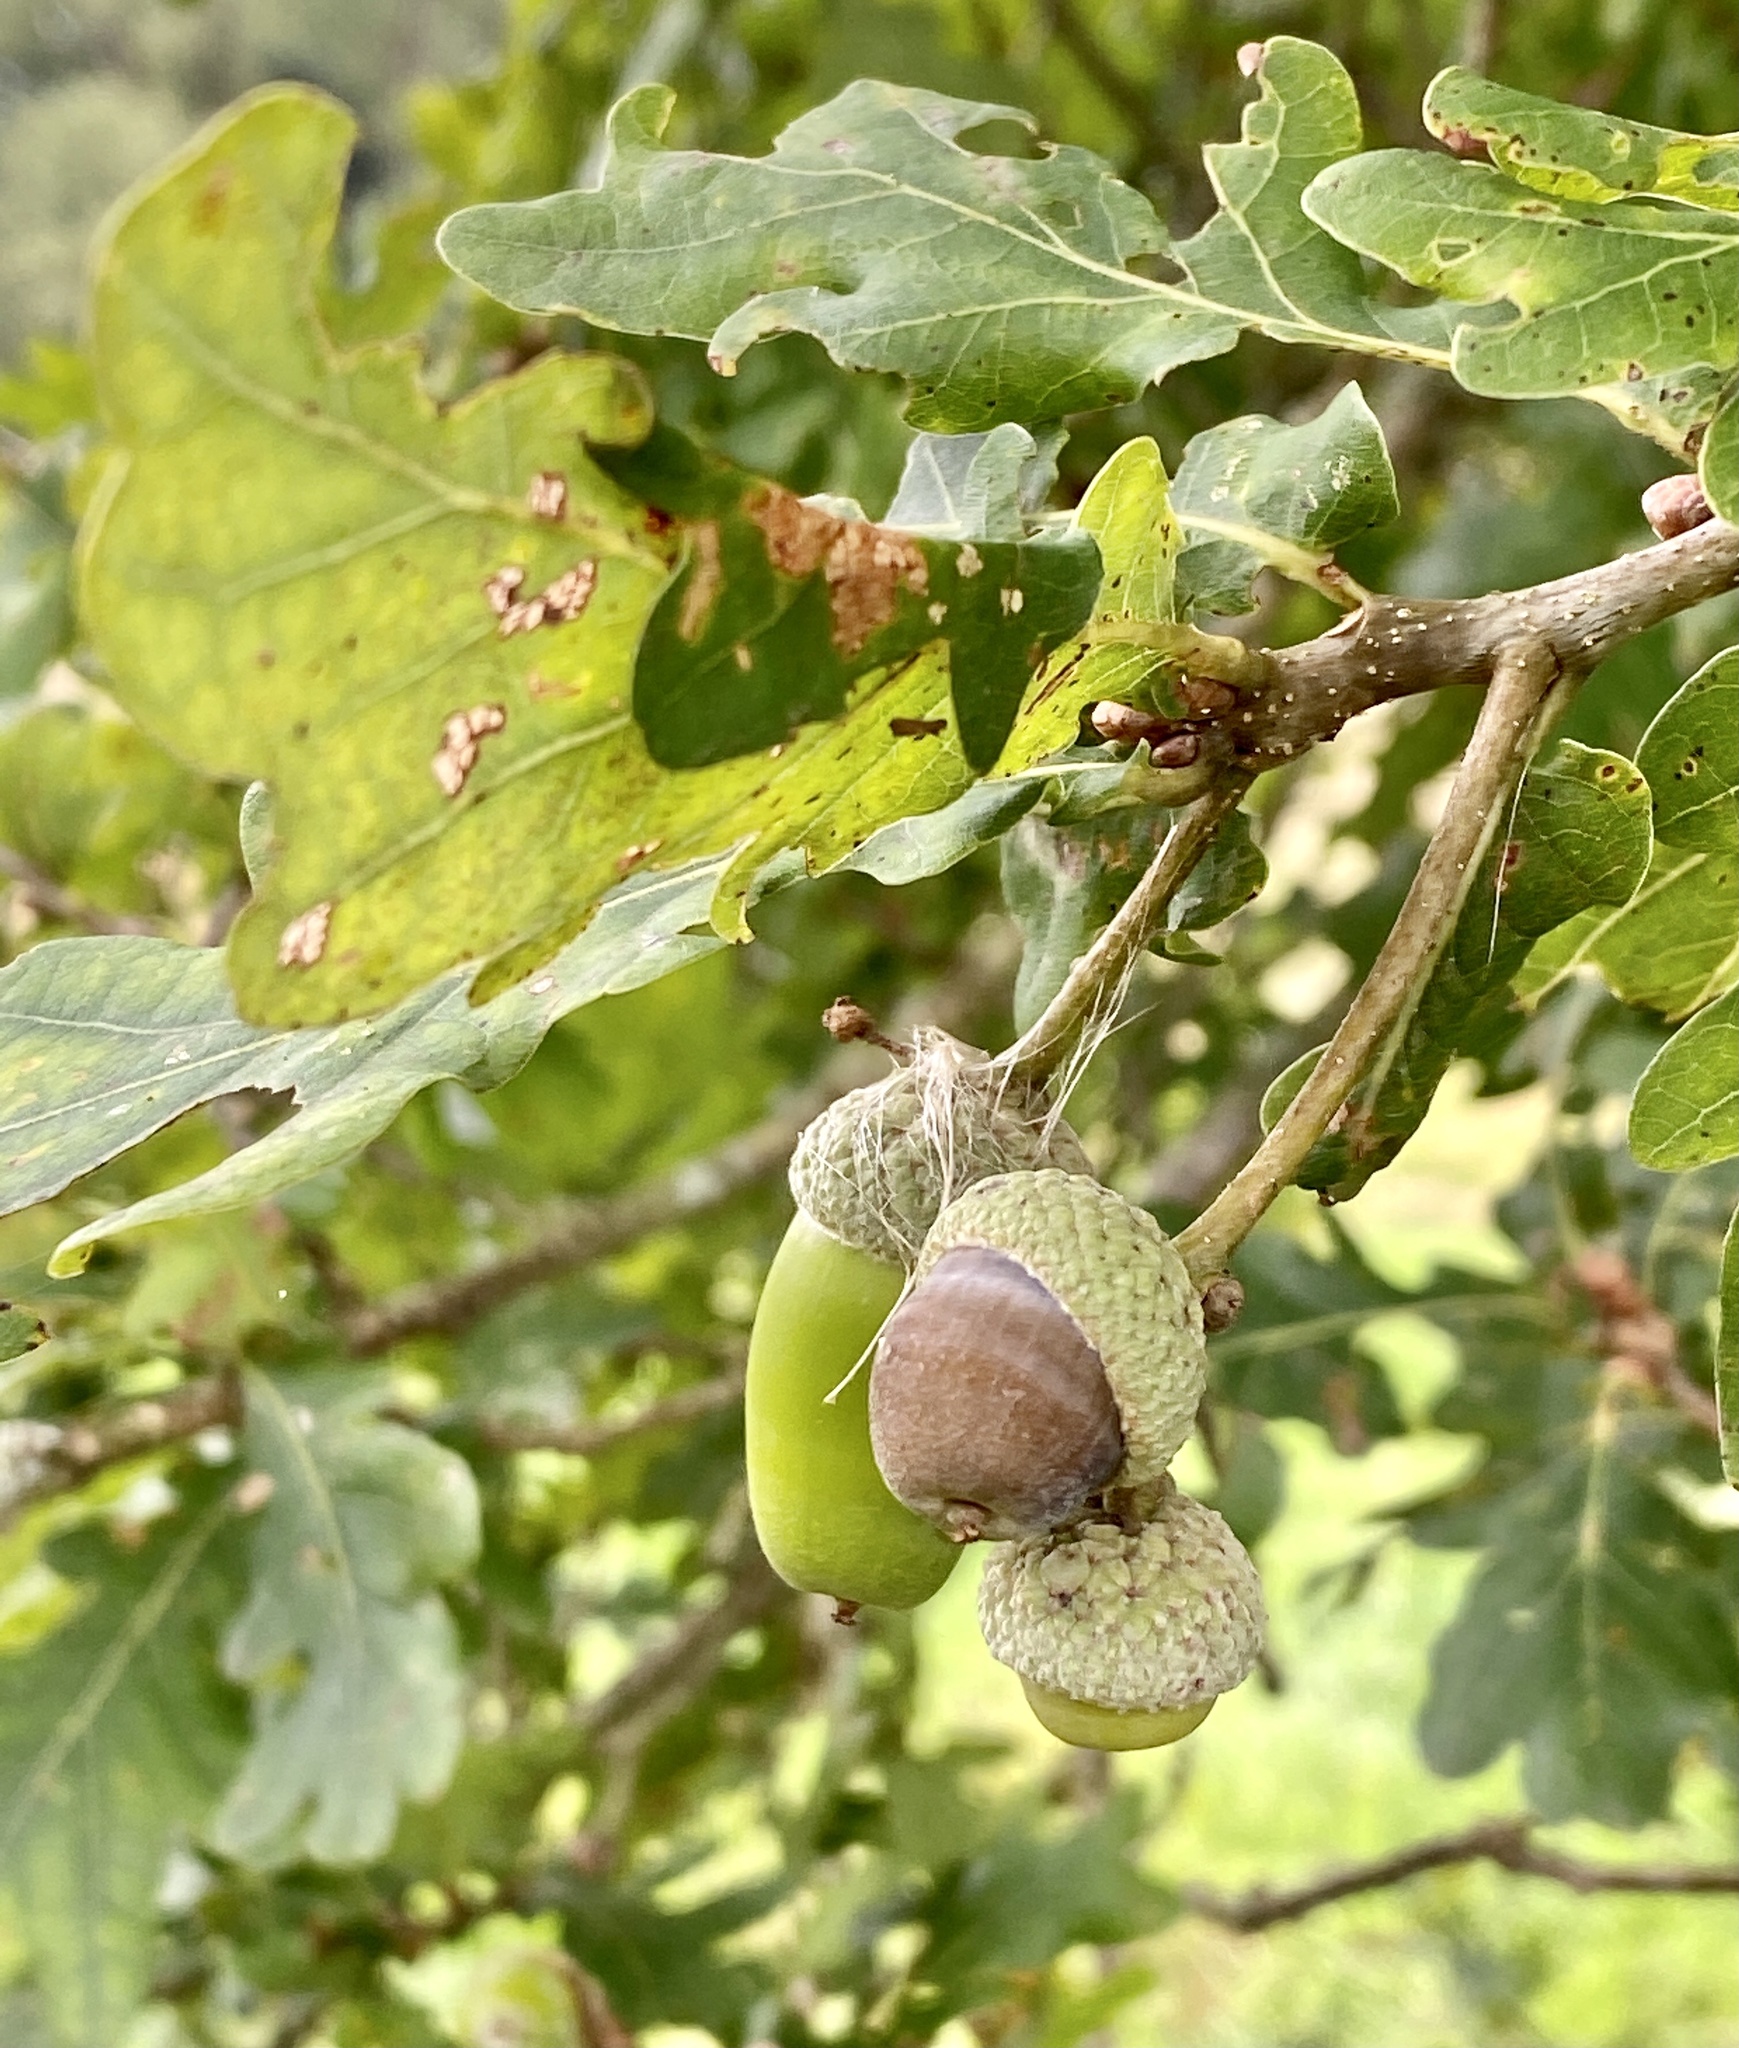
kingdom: Plantae
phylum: Tracheophyta
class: Magnoliopsida
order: Fagales
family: Fagaceae
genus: Quercus
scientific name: Quercus robur
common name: Pedunculate oak
